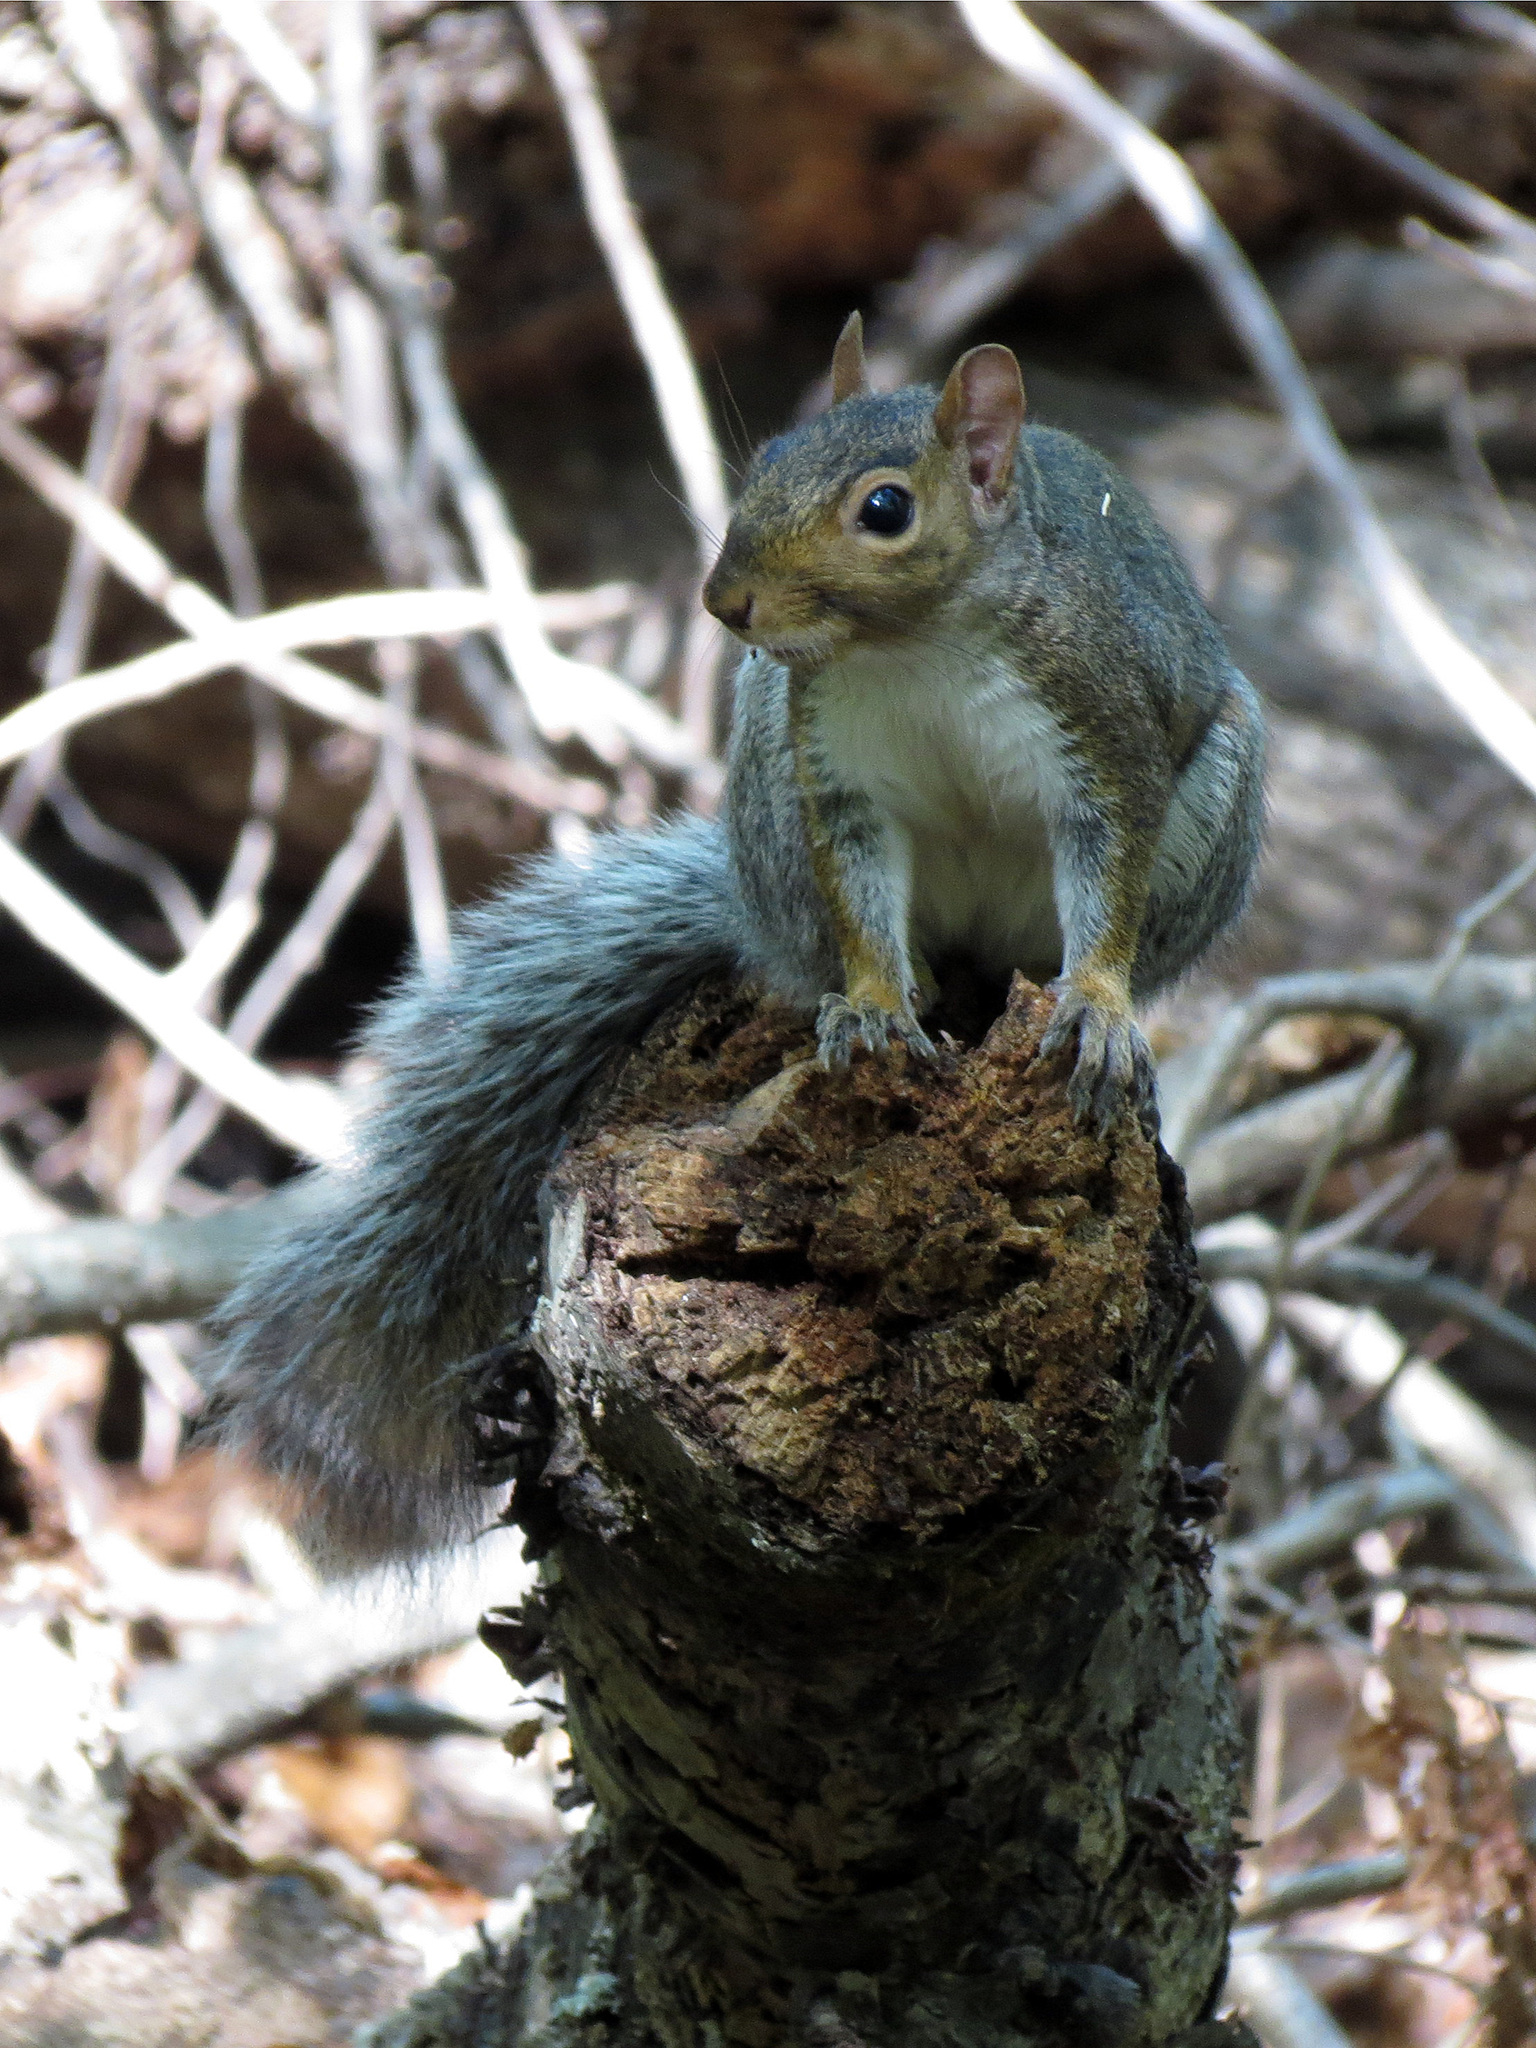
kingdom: Animalia
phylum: Chordata
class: Mammalia
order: Rodentia
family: Sciuridae
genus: Sciurus
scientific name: Sciurus carolinensis
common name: Eastern gray squirrel
